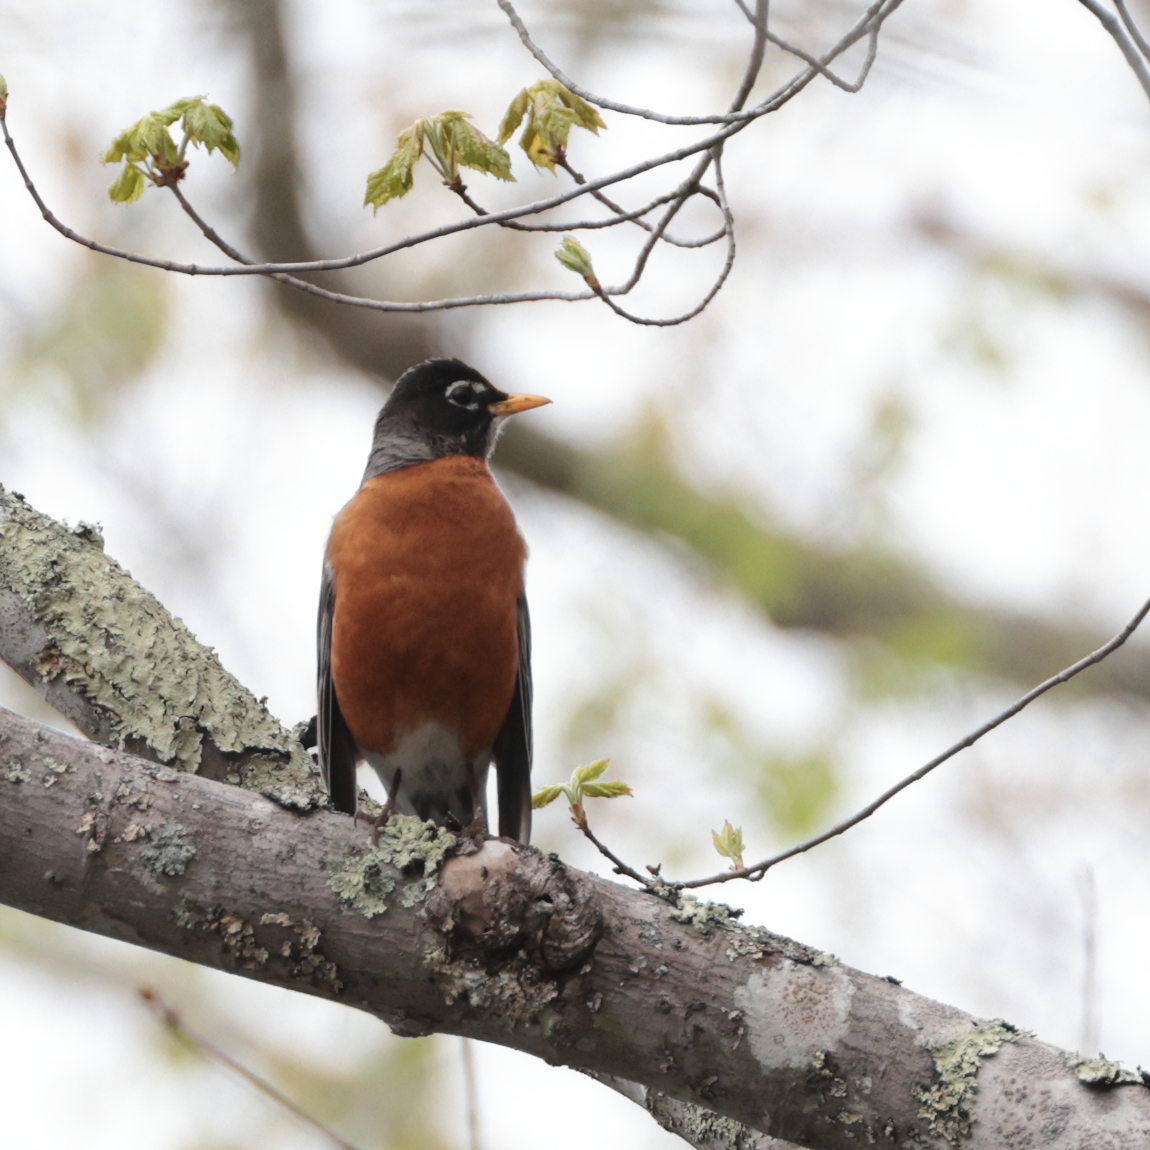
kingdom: Animalia
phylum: Chordata
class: Aves
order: Passeriformes
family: Turdidae
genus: Turdus
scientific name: Turdus migratorius
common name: American robin
